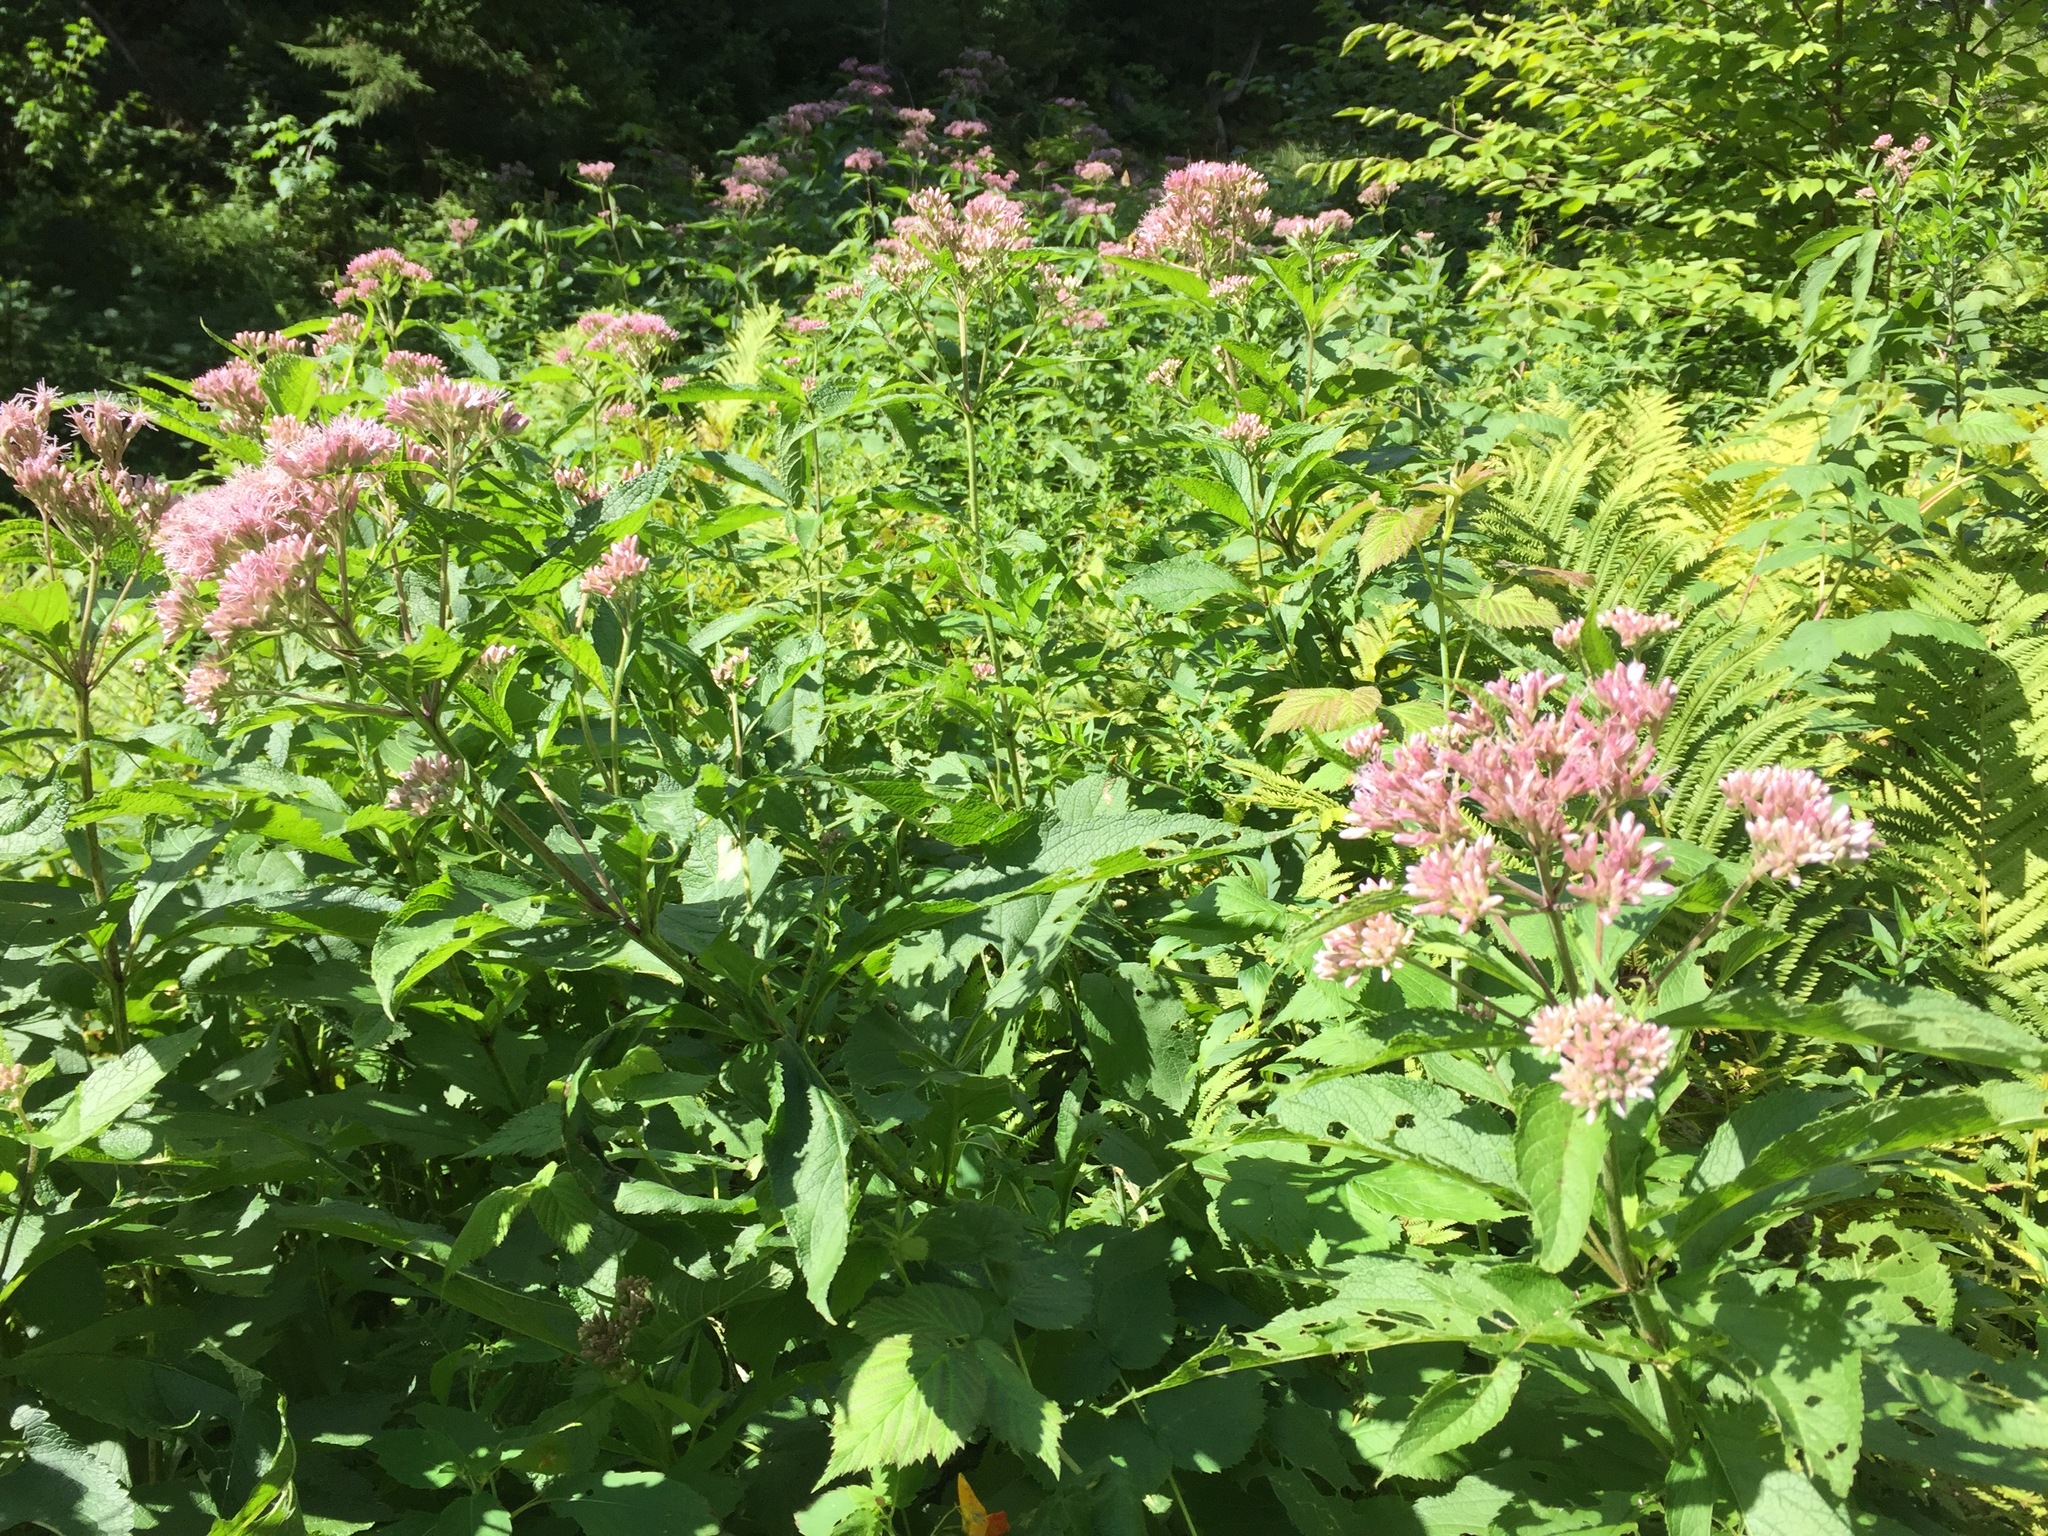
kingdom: Plantae
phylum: Tracheophyta
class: Magnoliopsida
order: Asterales
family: Asteraceae
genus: Eutrochium
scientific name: Eutrochium maculatum
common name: Spotted joe pye weed
